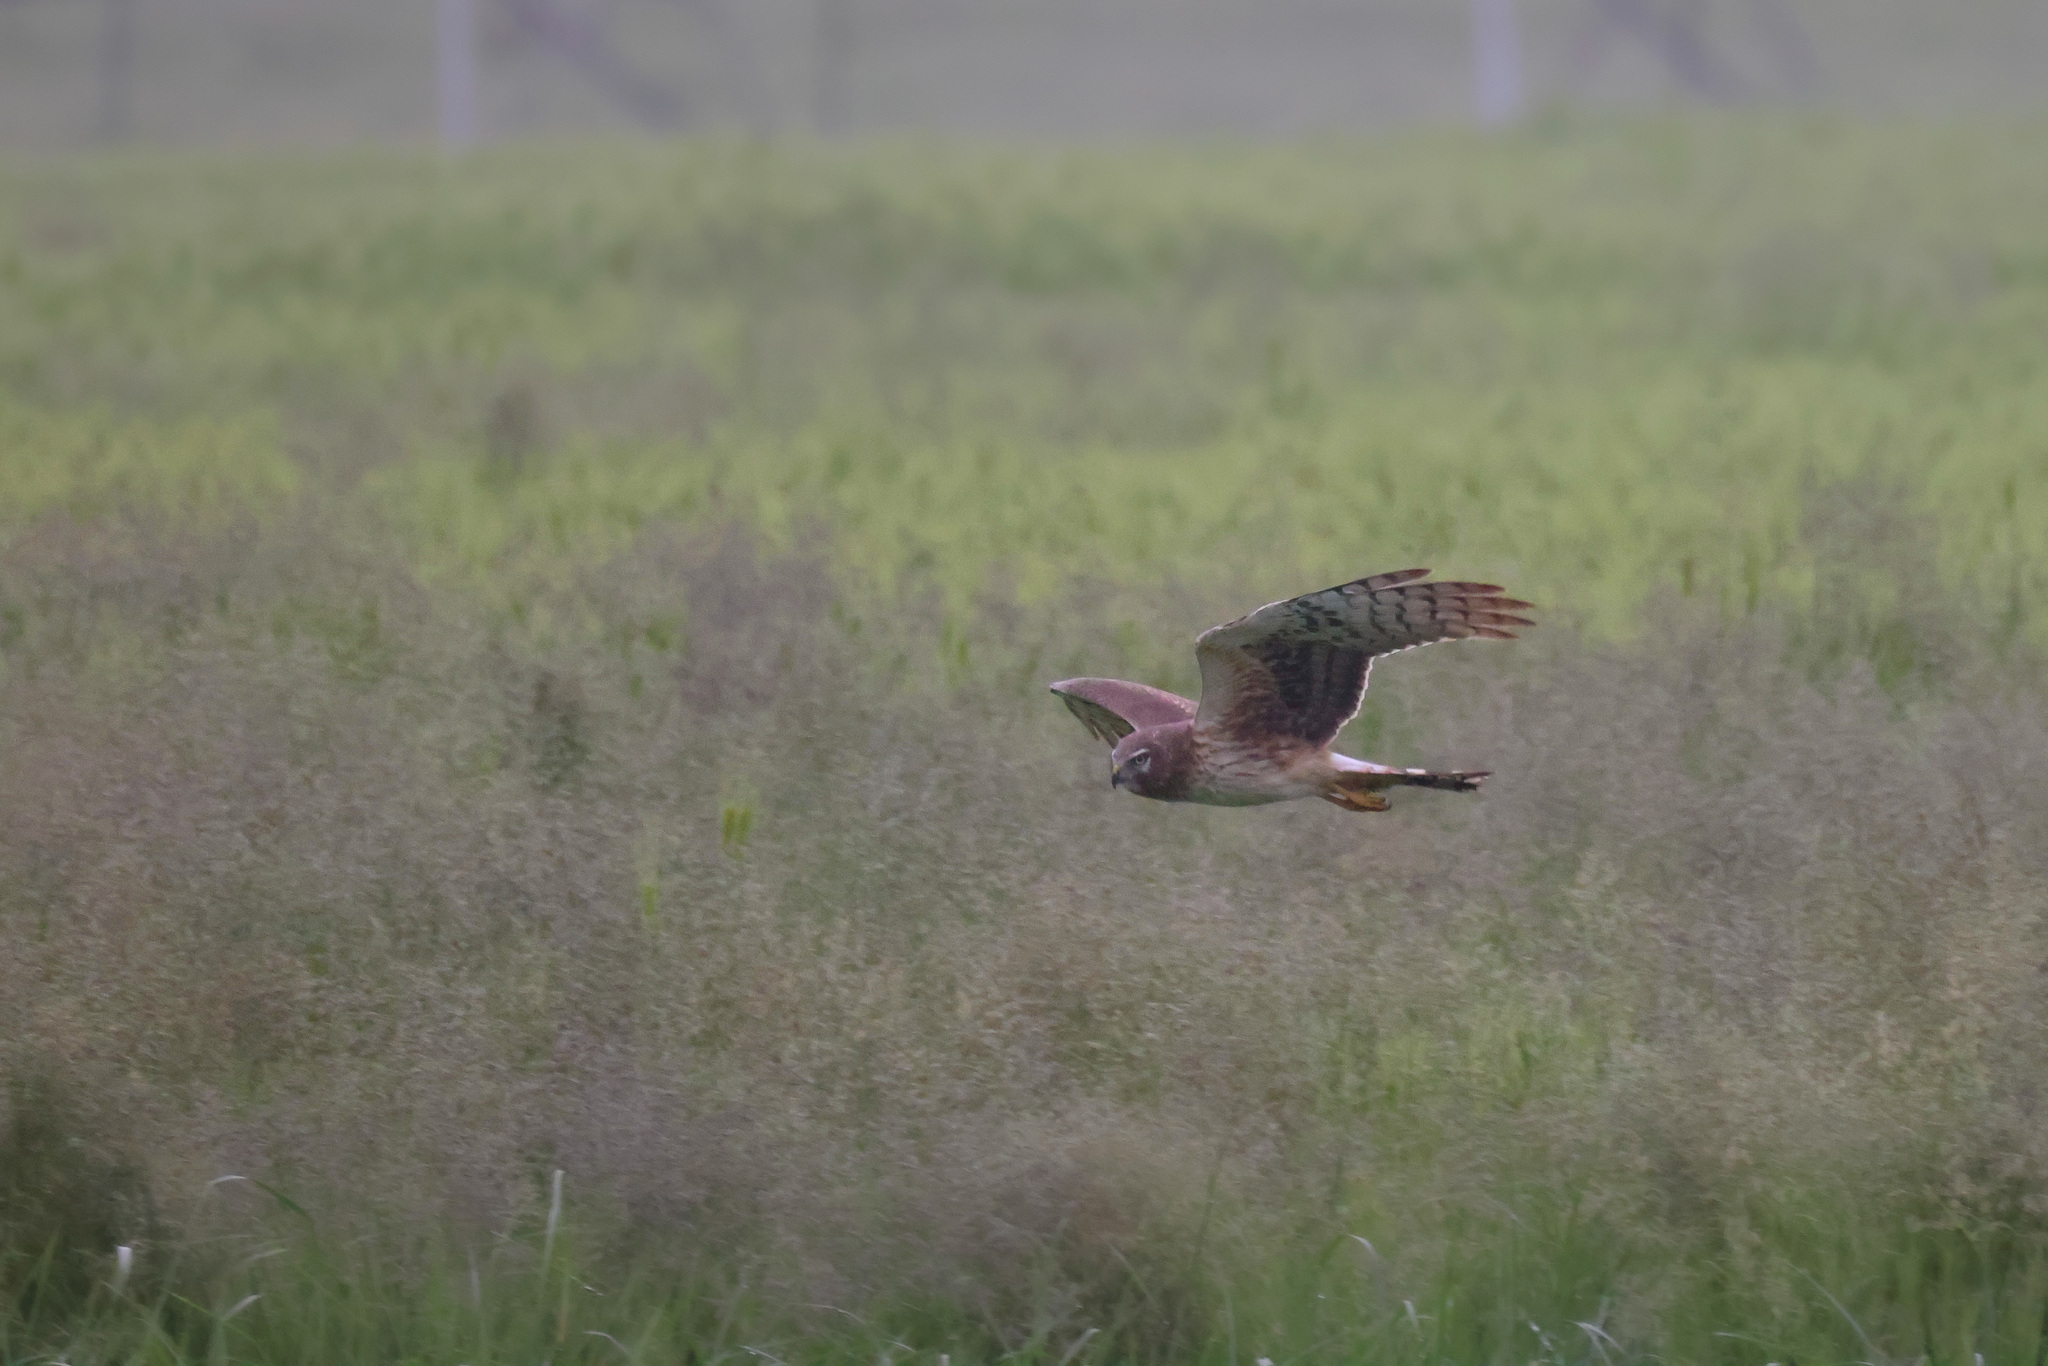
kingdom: Animalia
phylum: Chordata
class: Aves
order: Accipitriformes
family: Accipitridae
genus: Circus
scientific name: Circus cyaneus
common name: Hen harrier
